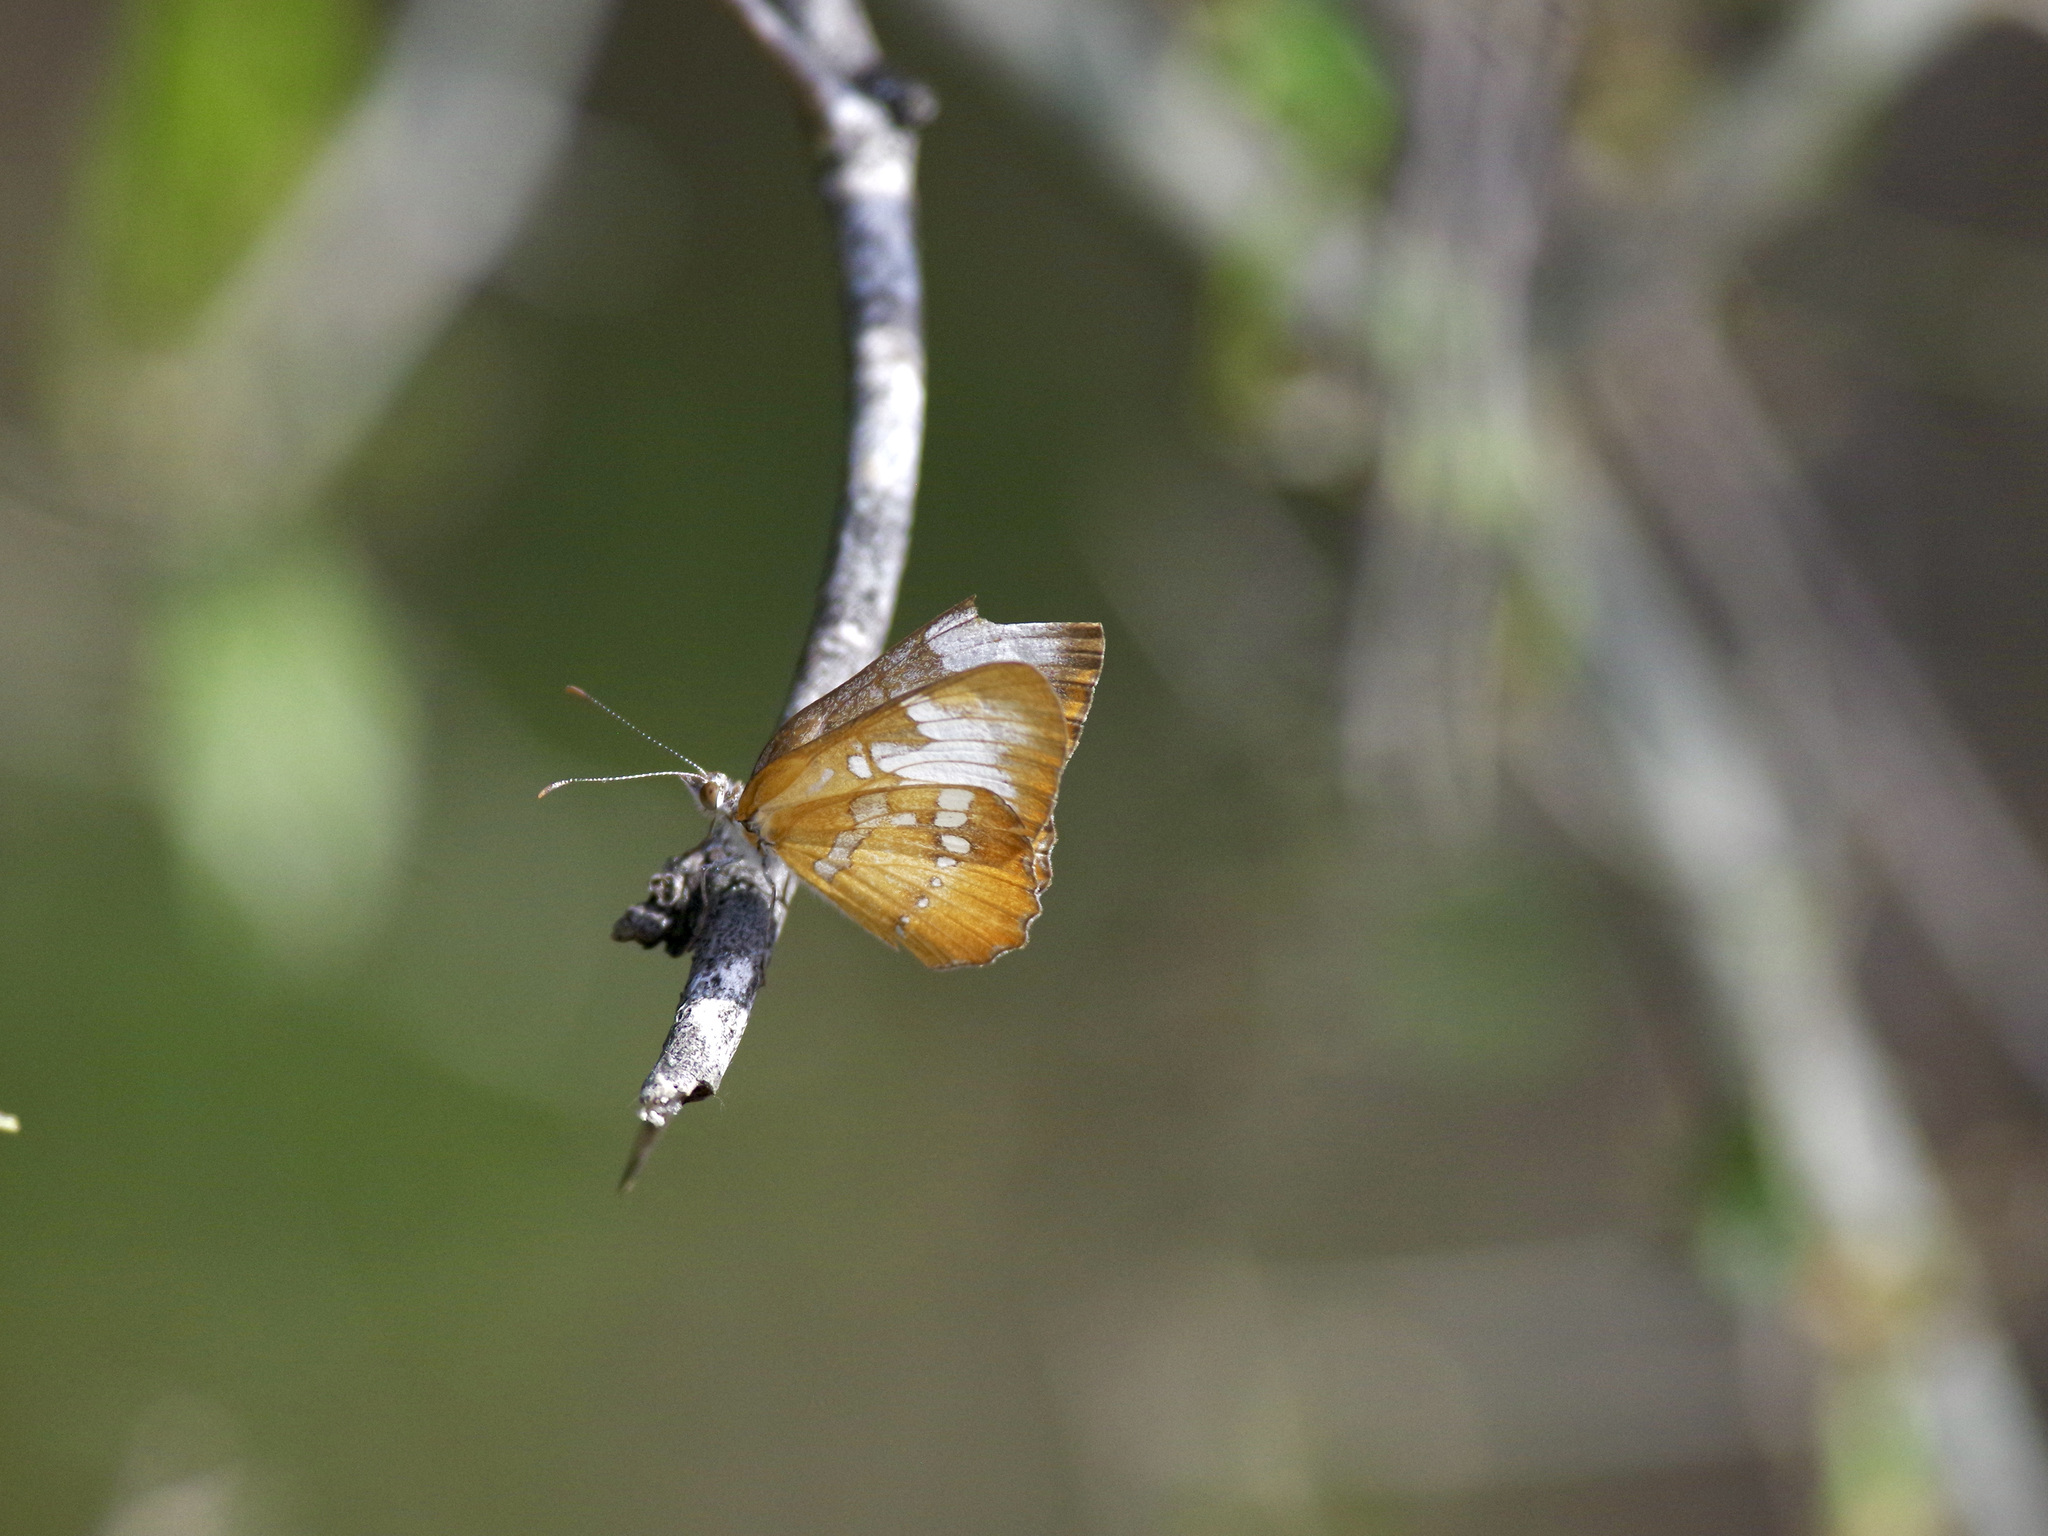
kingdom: Animalia
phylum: Arthropoda
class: Insecta
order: Lepidoptera
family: Nymphalidae
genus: Mestra
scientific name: Mestra amymone
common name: Common mestra
